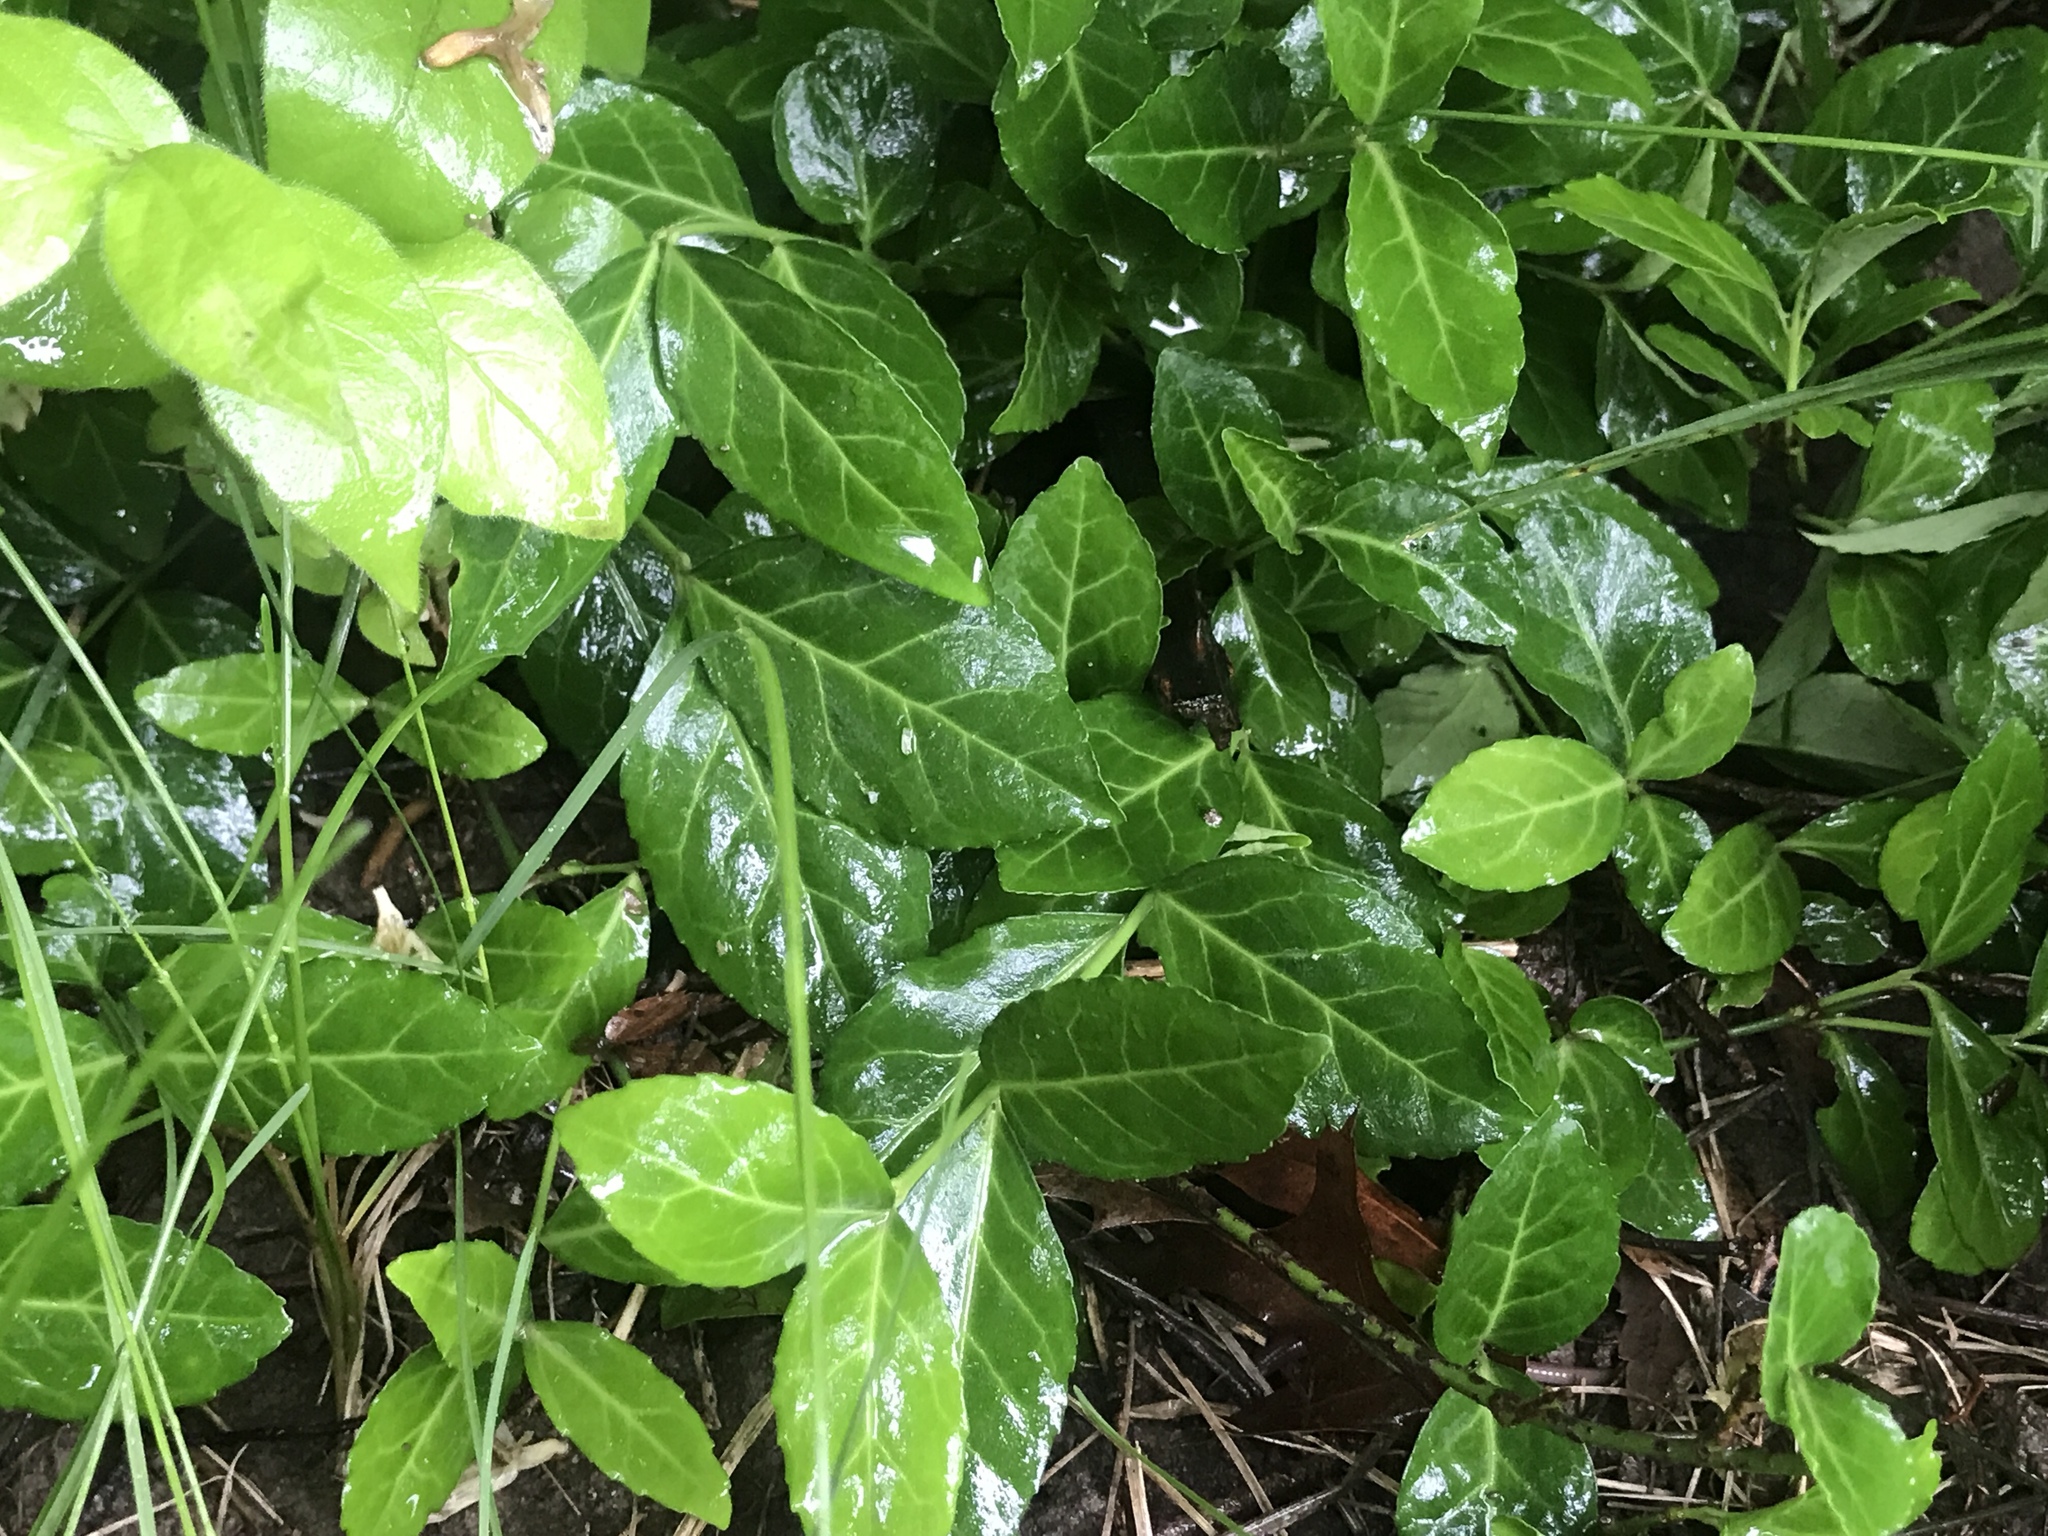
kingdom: Plantae
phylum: Tracheophyta
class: Magnoliopsida
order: Celastrales
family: Celastraceae
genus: Euonymus
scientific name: Euonymus fortunei
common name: Climbing euonymus
